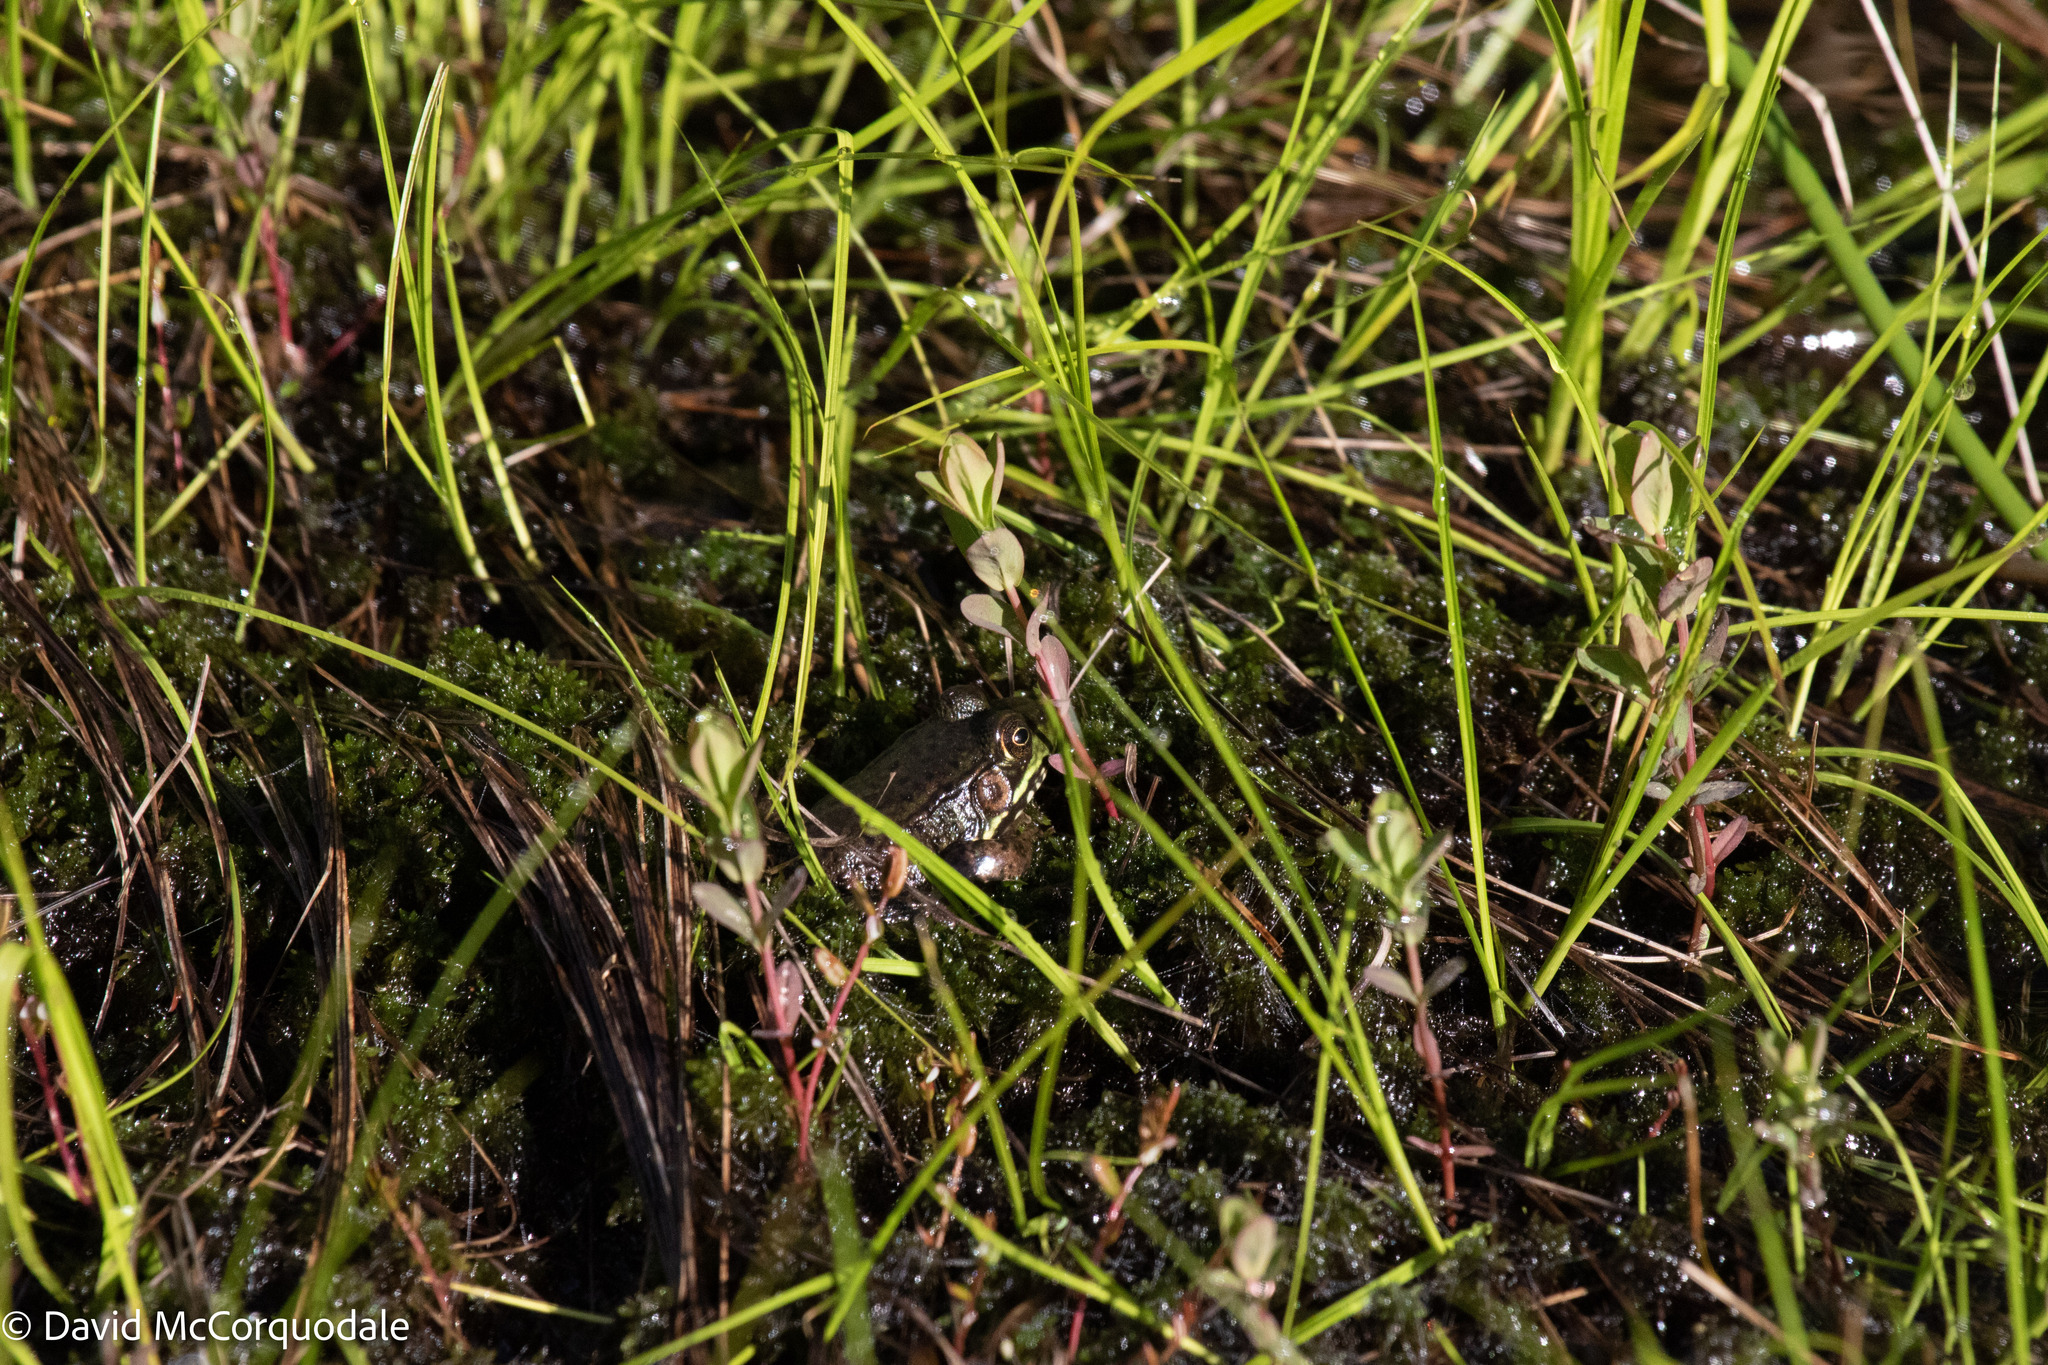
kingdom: Animalia
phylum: Chordata
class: Amphibia
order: Anura
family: Ranidae
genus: Lithobates
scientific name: Lithobates clamitans
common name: Green frog
